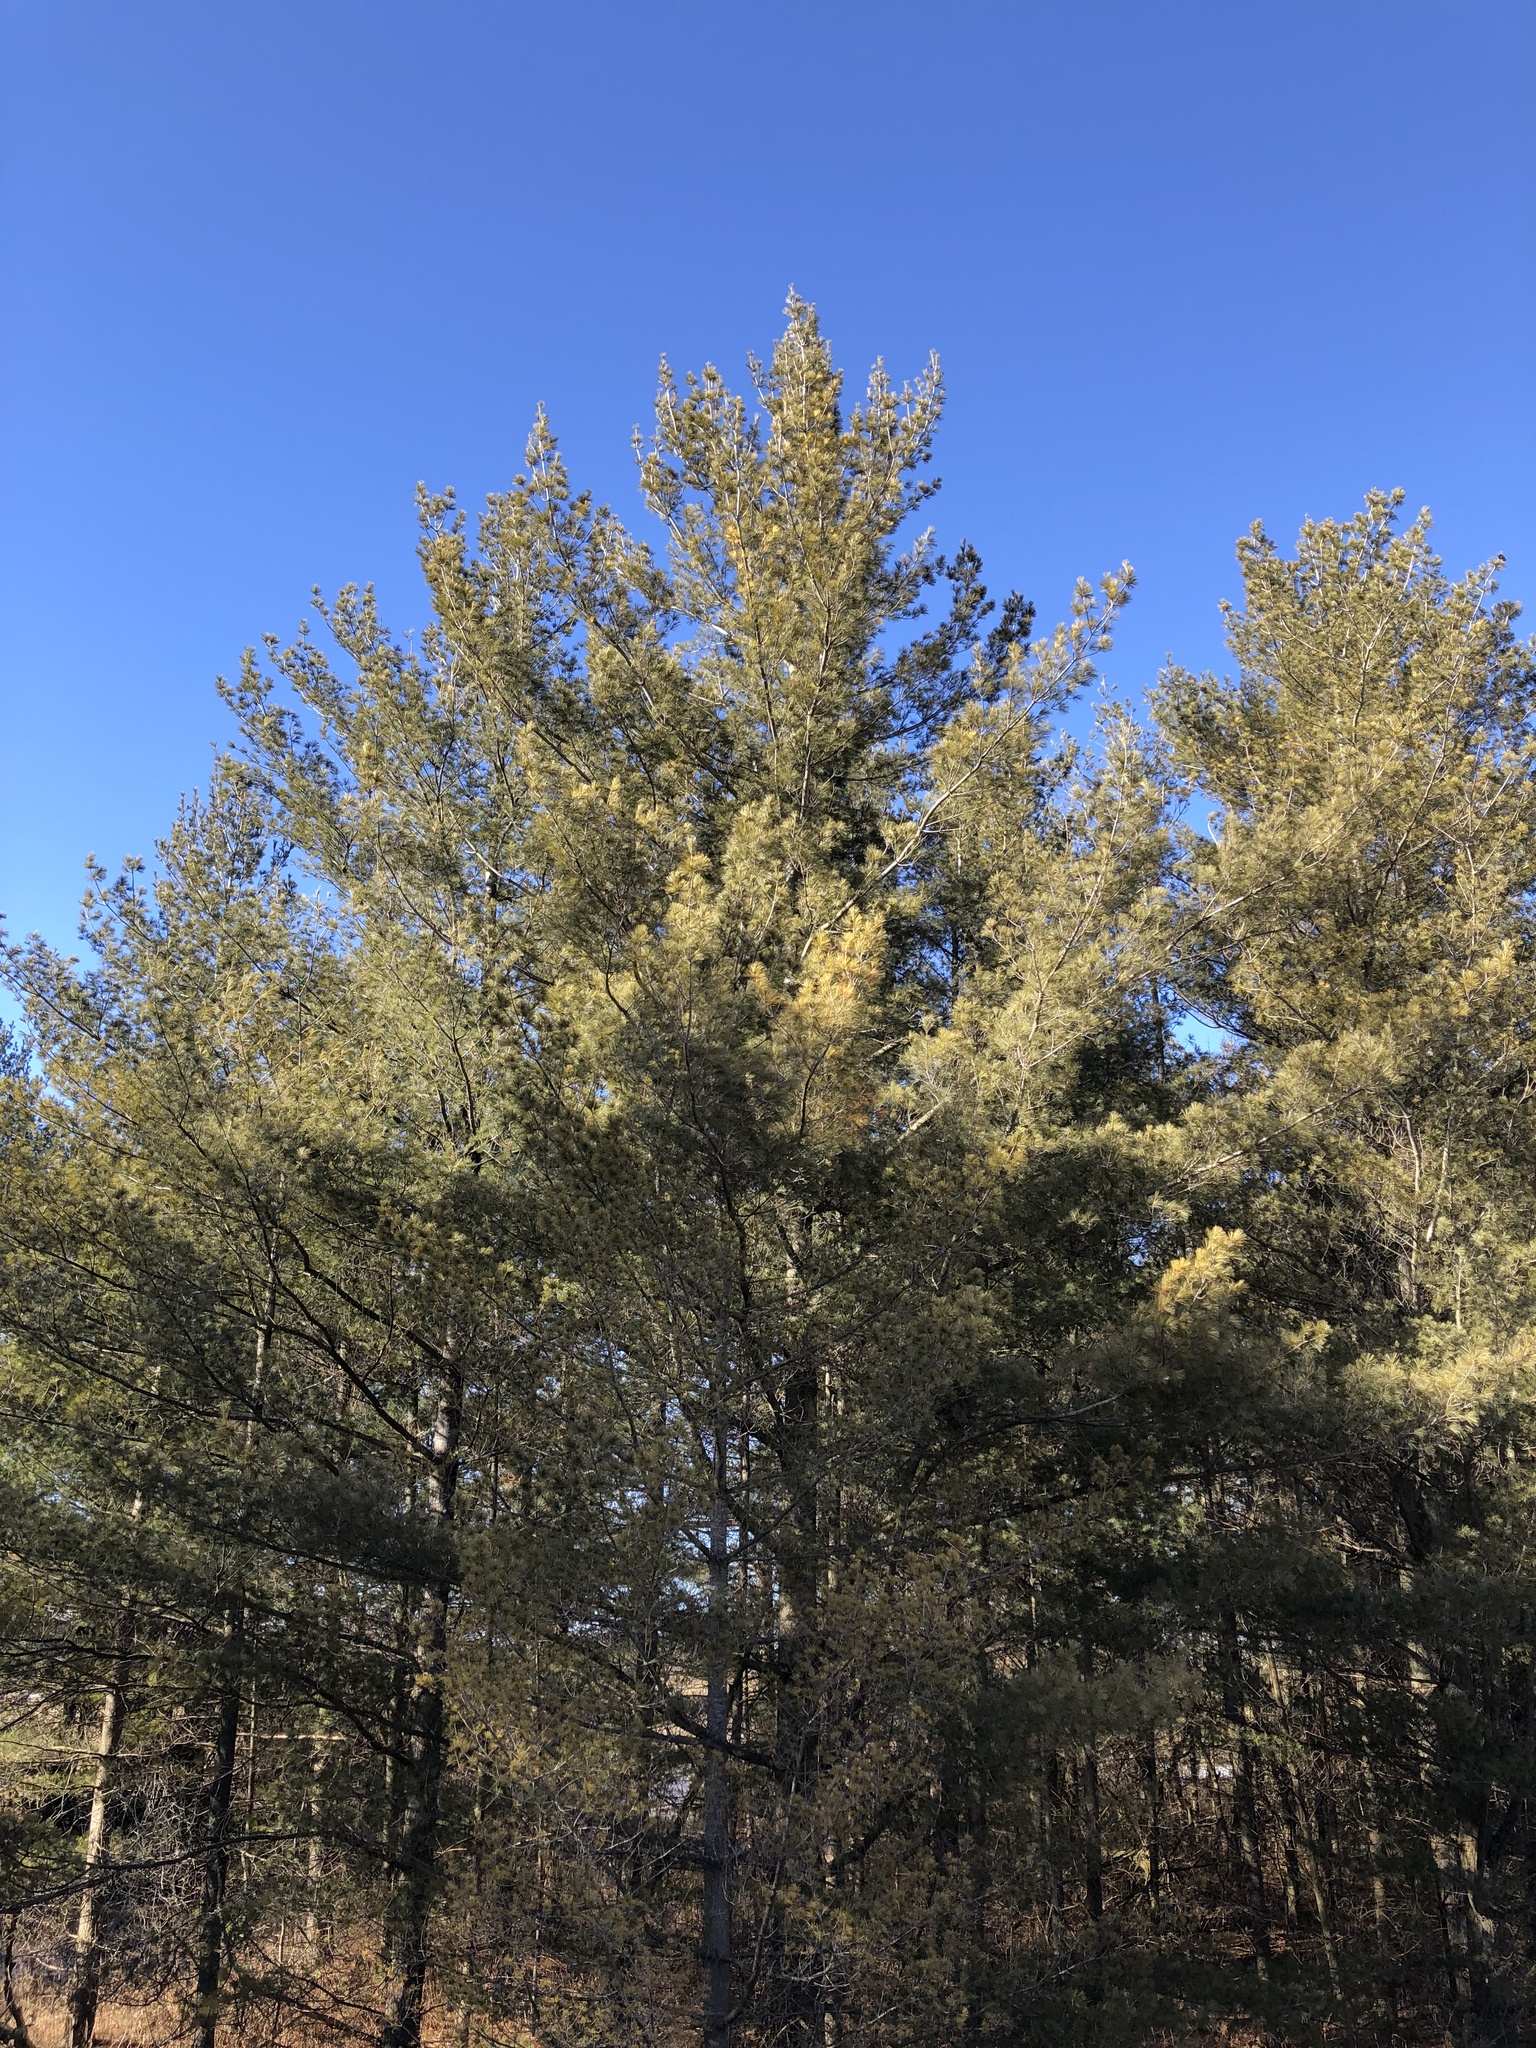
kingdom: Plantae
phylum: Tracheophyta
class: Pinopsida
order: Pinales
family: Pinaceae
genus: Pinus
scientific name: Pinus strobus
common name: Weymouth pine
